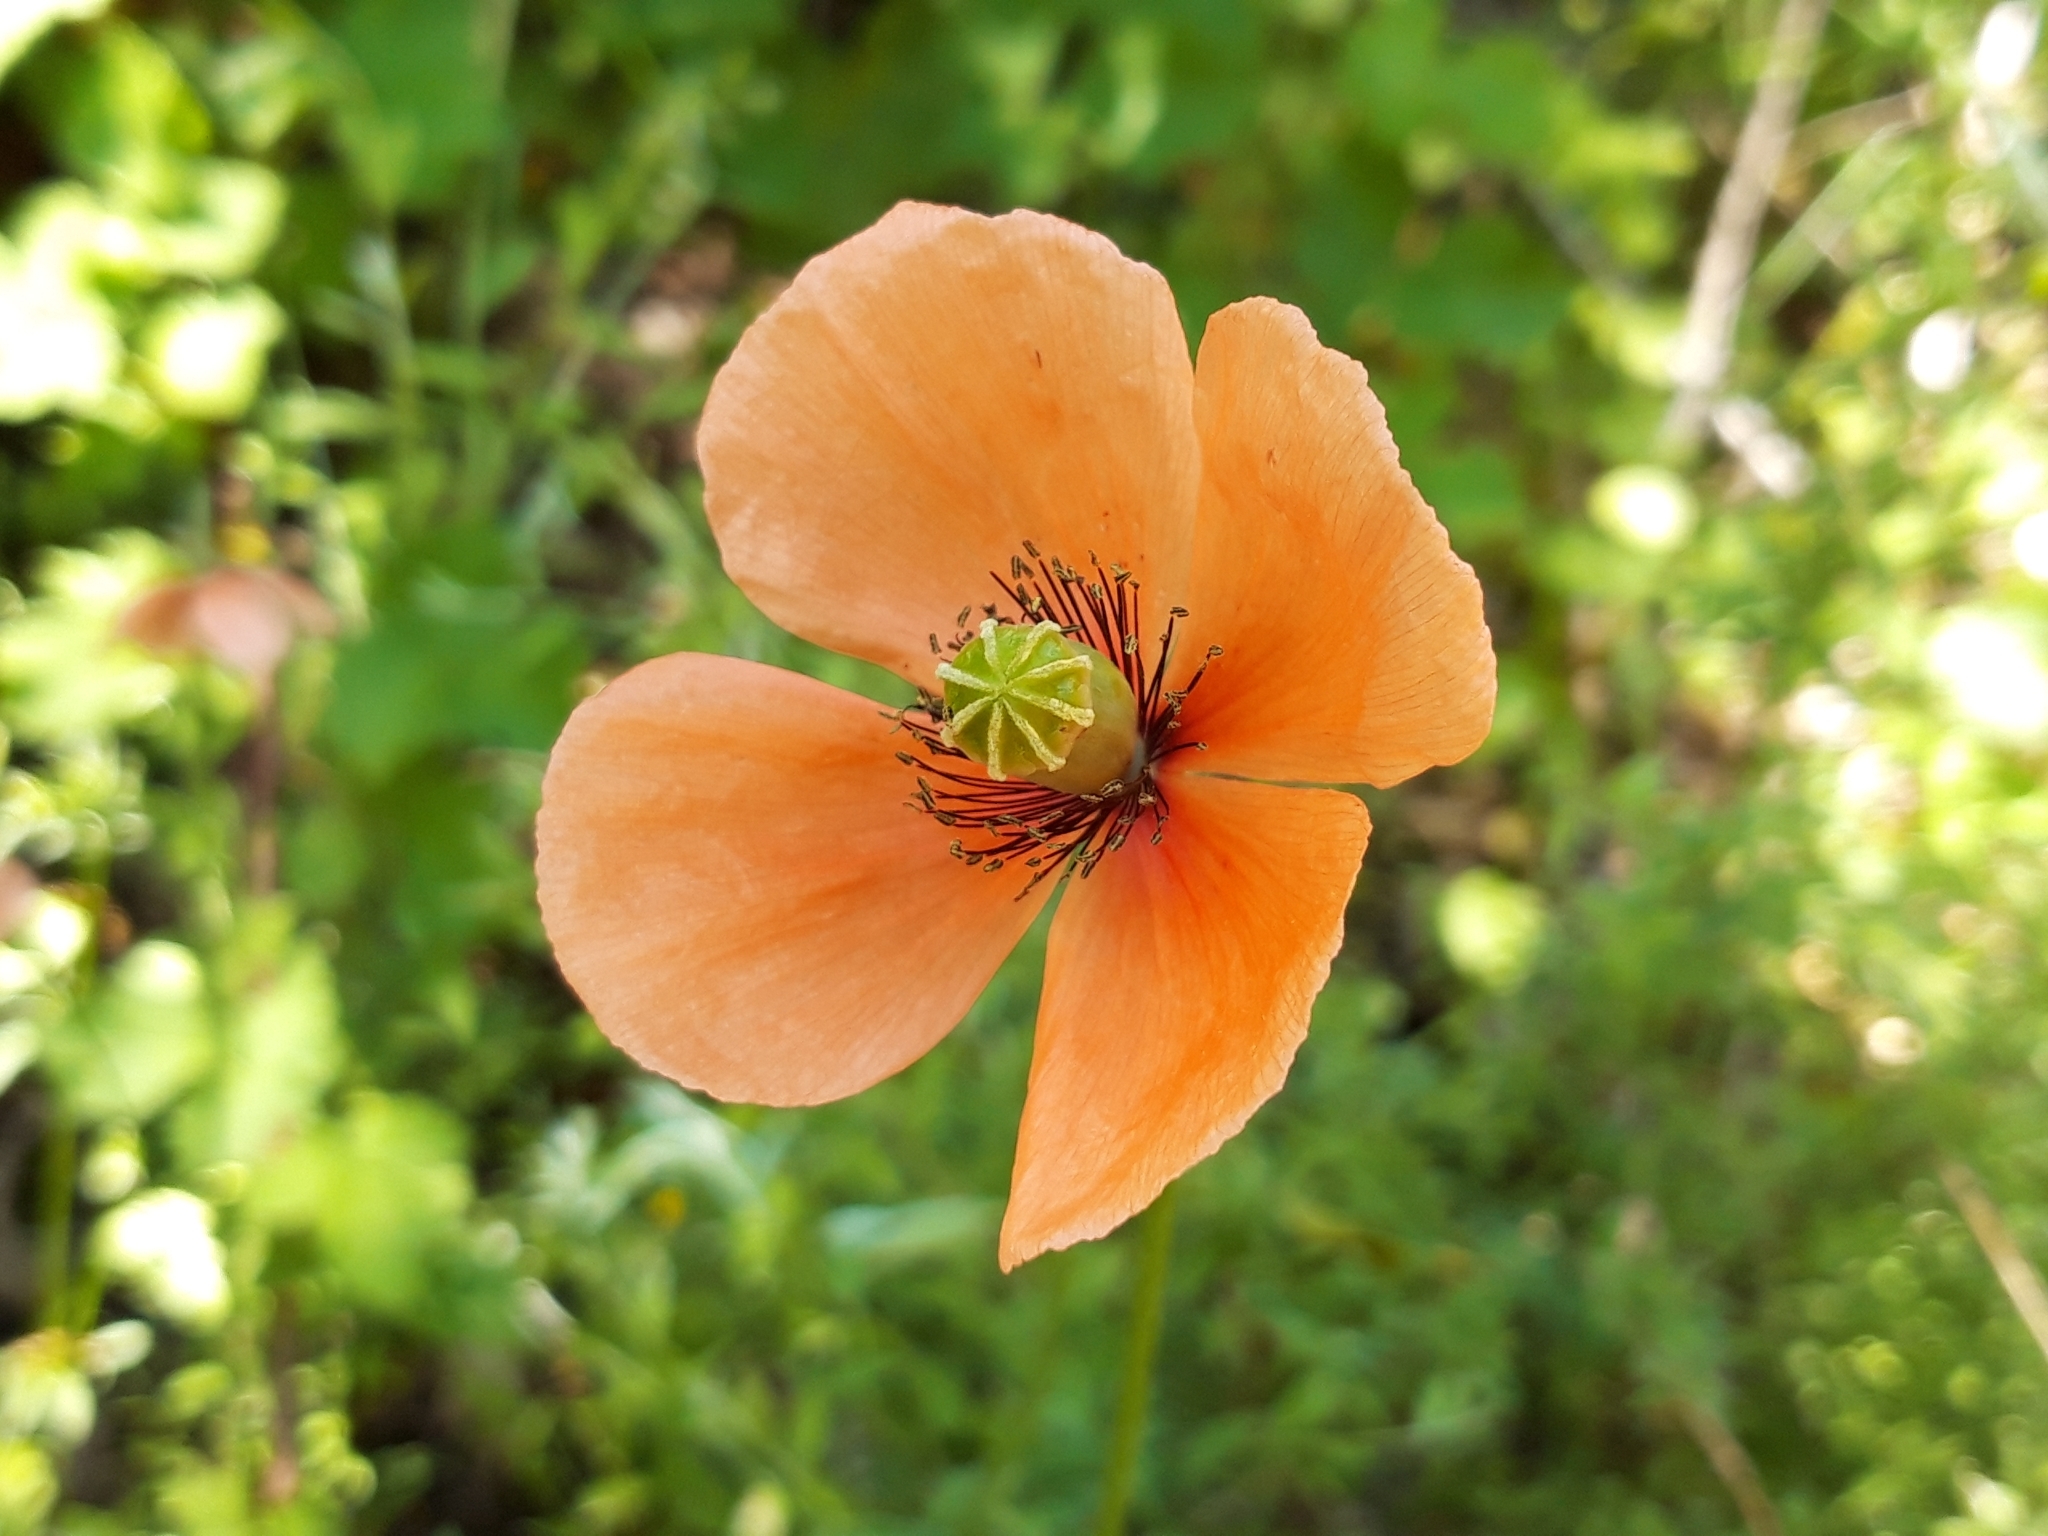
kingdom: Plantae
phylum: Tracheophyta
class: Magnoliopsida
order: Ranunculales
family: Papaveraceae
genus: Papaver
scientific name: Papaver dubium
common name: Long-headed poppy
